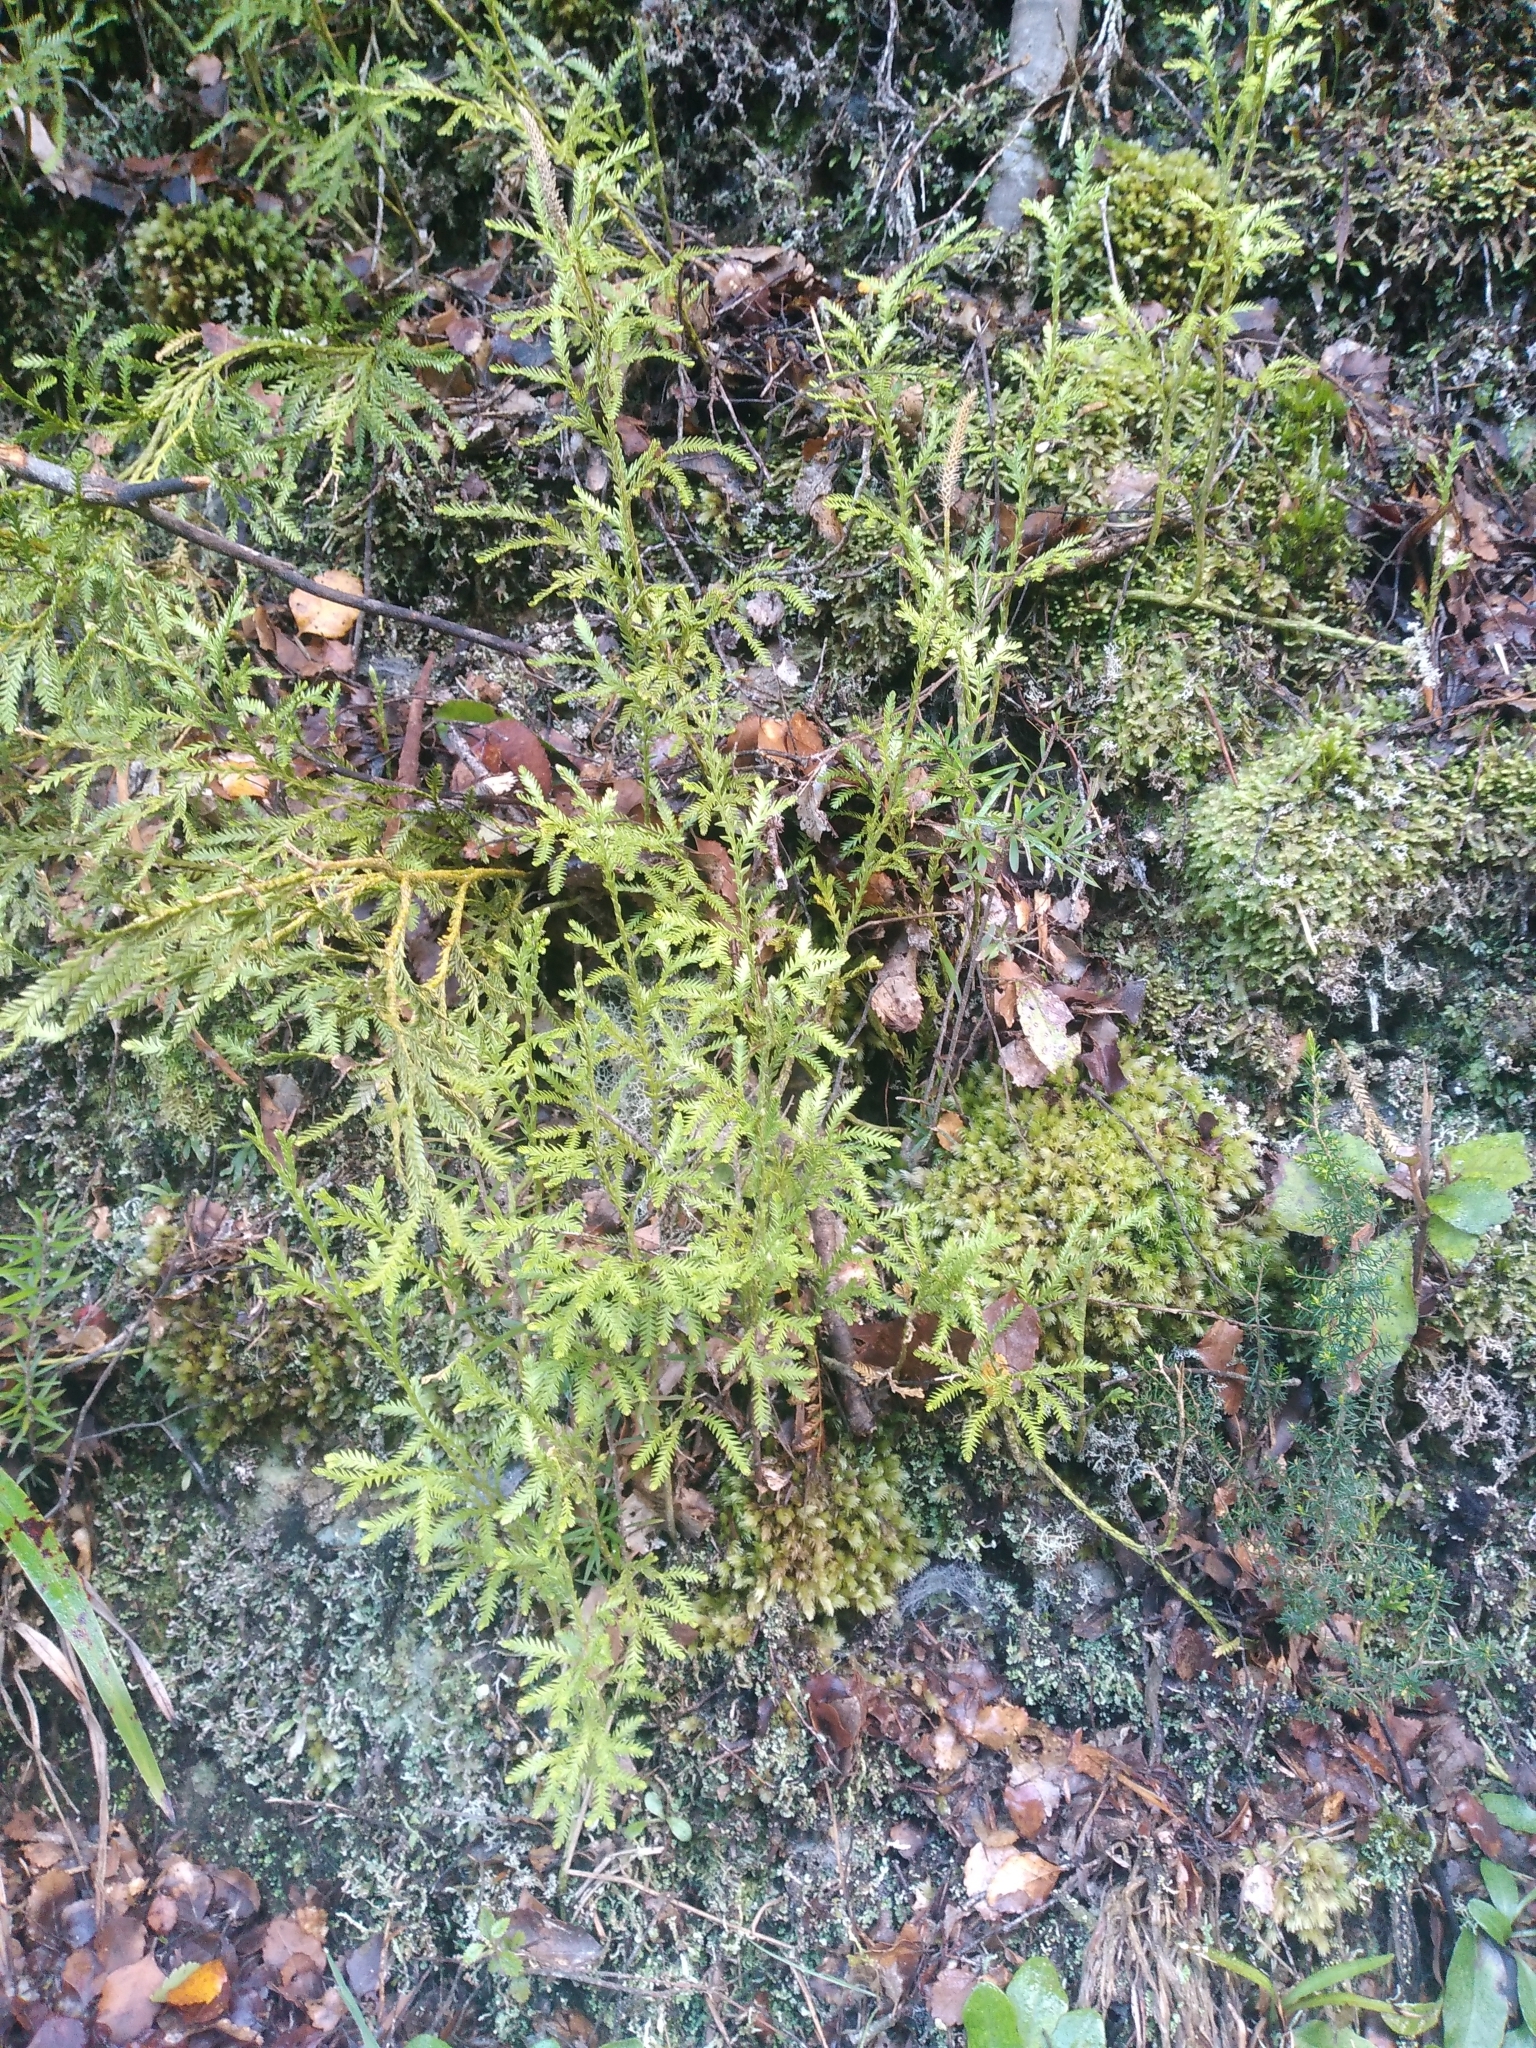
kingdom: Plantae
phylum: Tracheophyta
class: Lycopodiopsida
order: Lycopodiales
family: Lycopodiaceae
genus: Diphasium
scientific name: Diphasium scariosum
